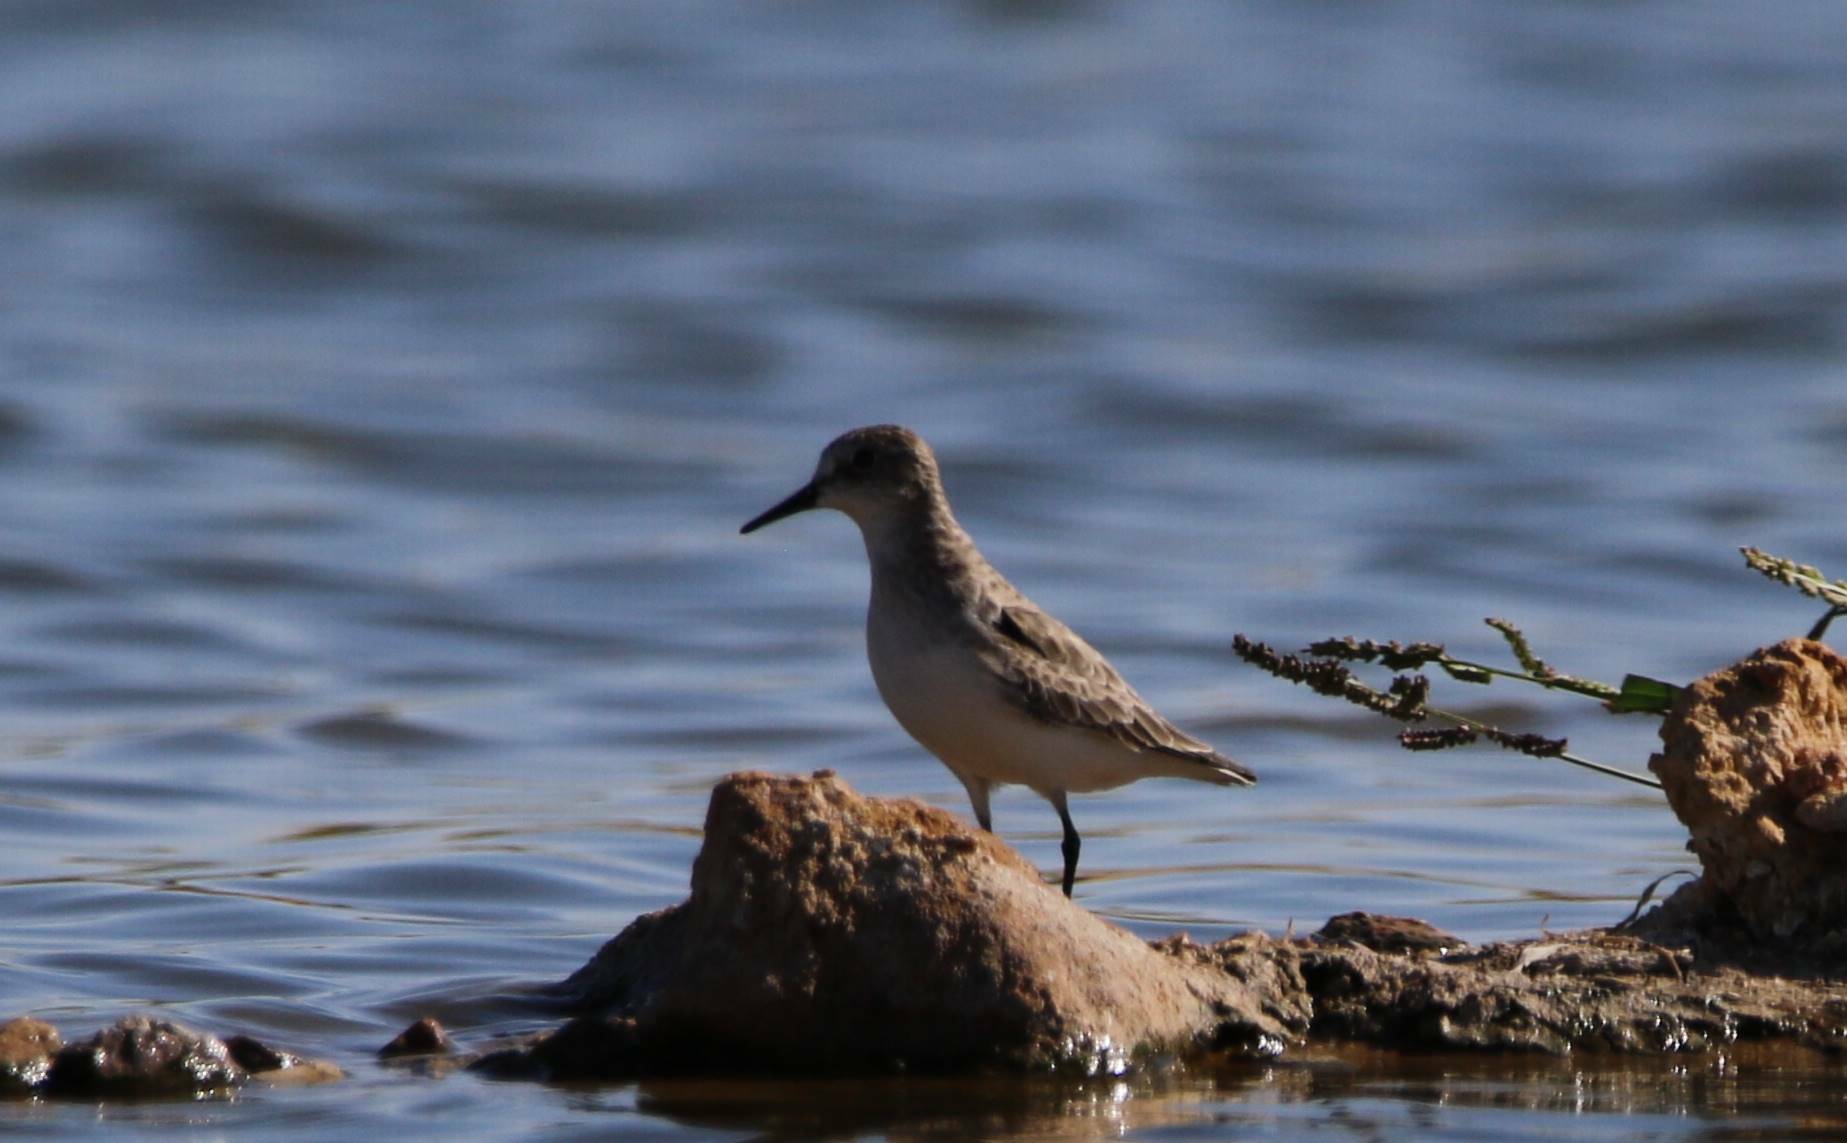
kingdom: Animalia
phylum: Chordata
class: Aves
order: Charadriiformes
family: Scolopacidae
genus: Calidris
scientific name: Calidris minuta
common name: Little stint
